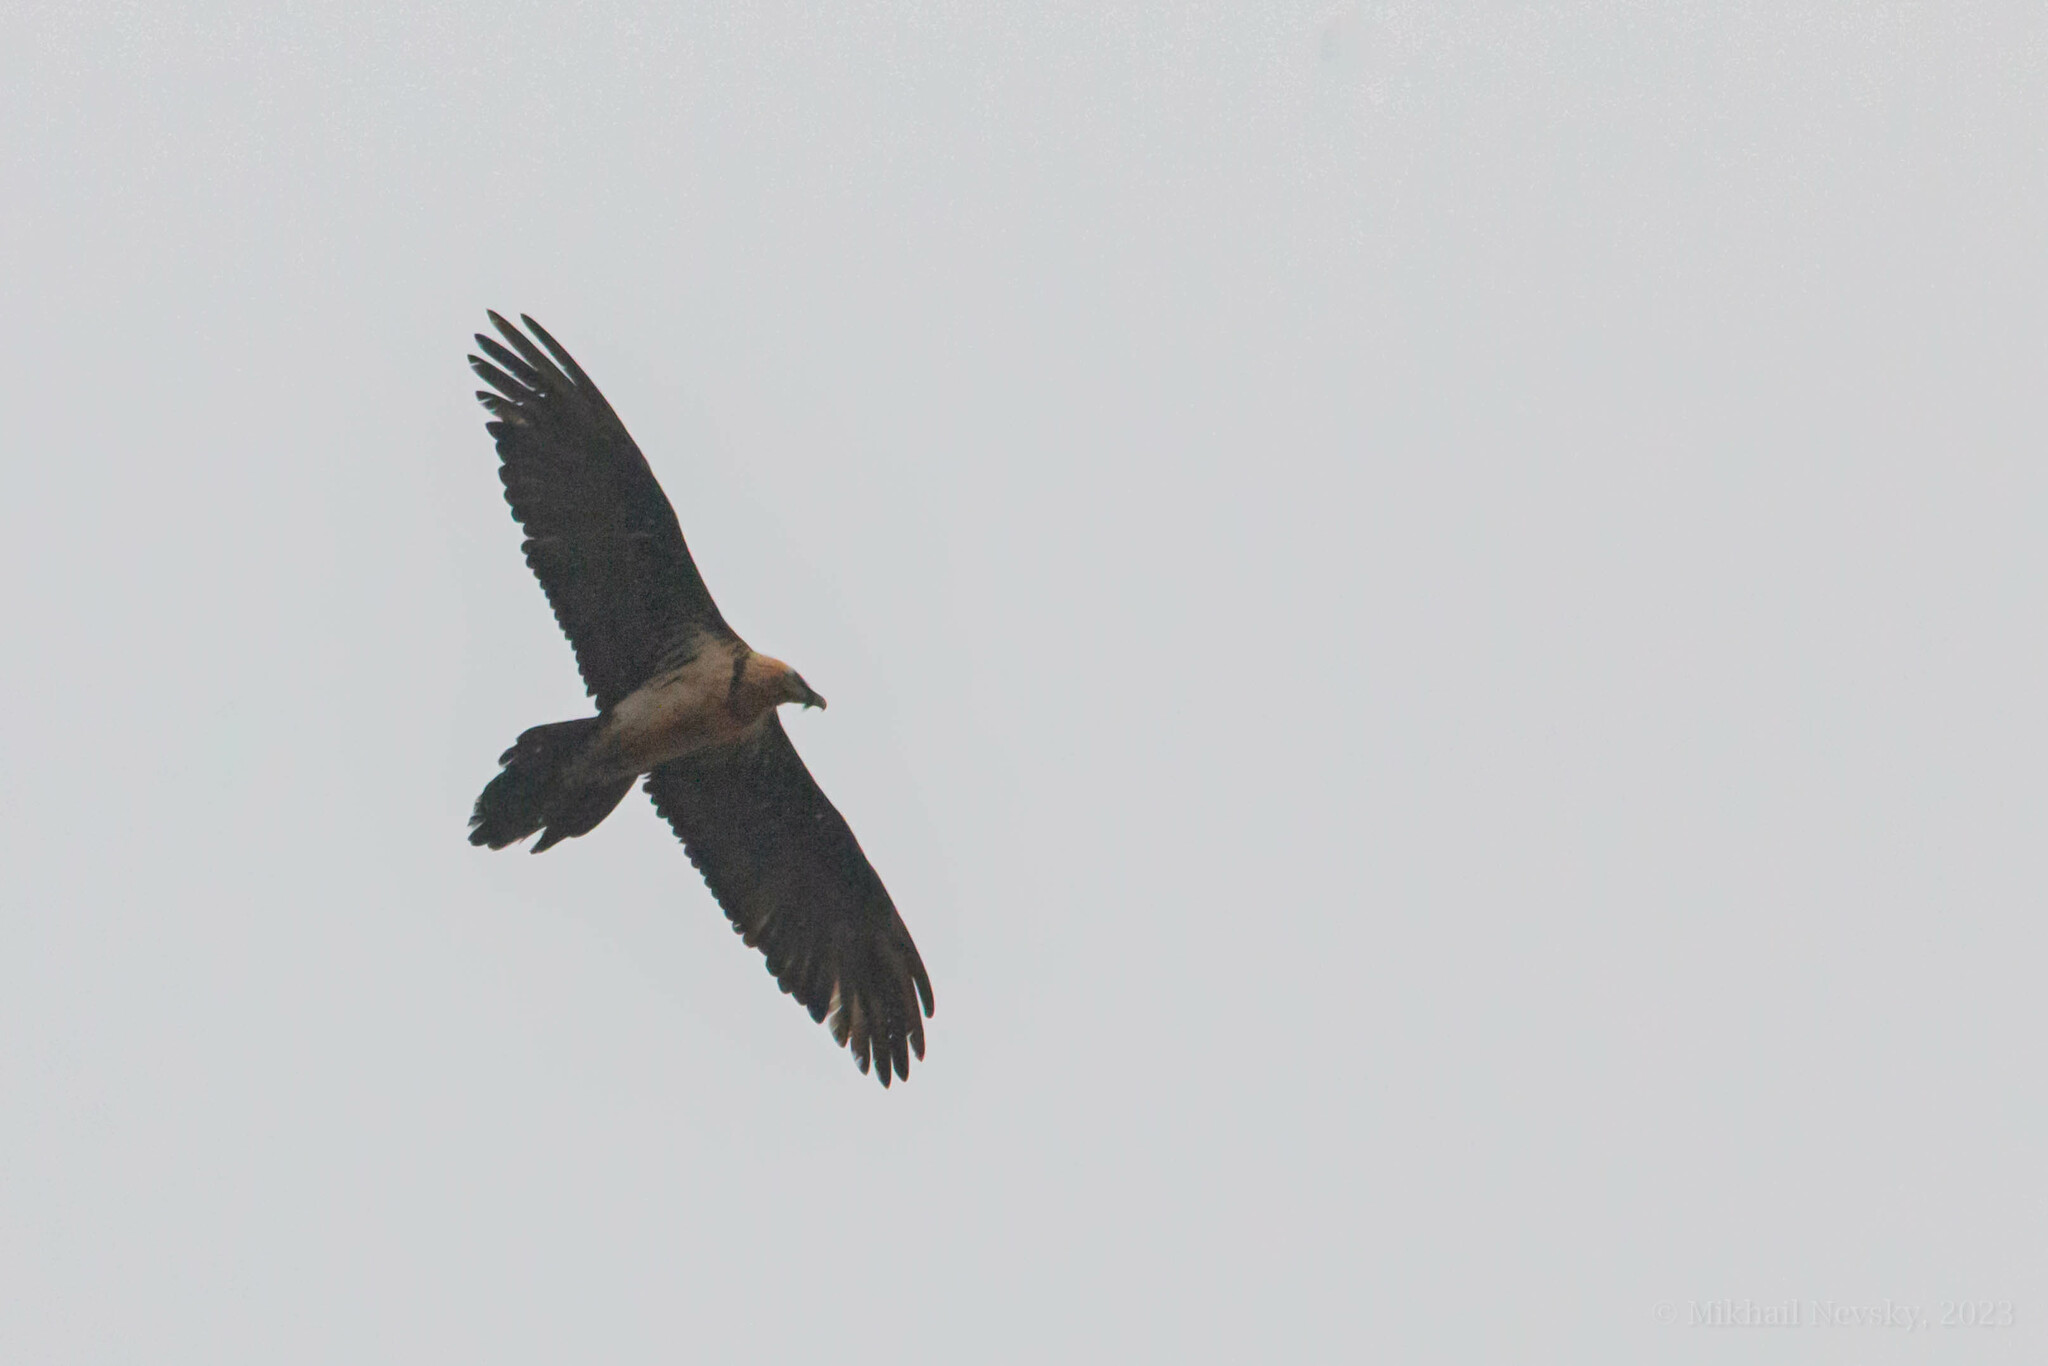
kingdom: Animalia
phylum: Chordata
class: Aves
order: Accipitriformes
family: Accipitridae
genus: Gypaetus
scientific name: Gypaetus barbatus
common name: Bearded vulture
